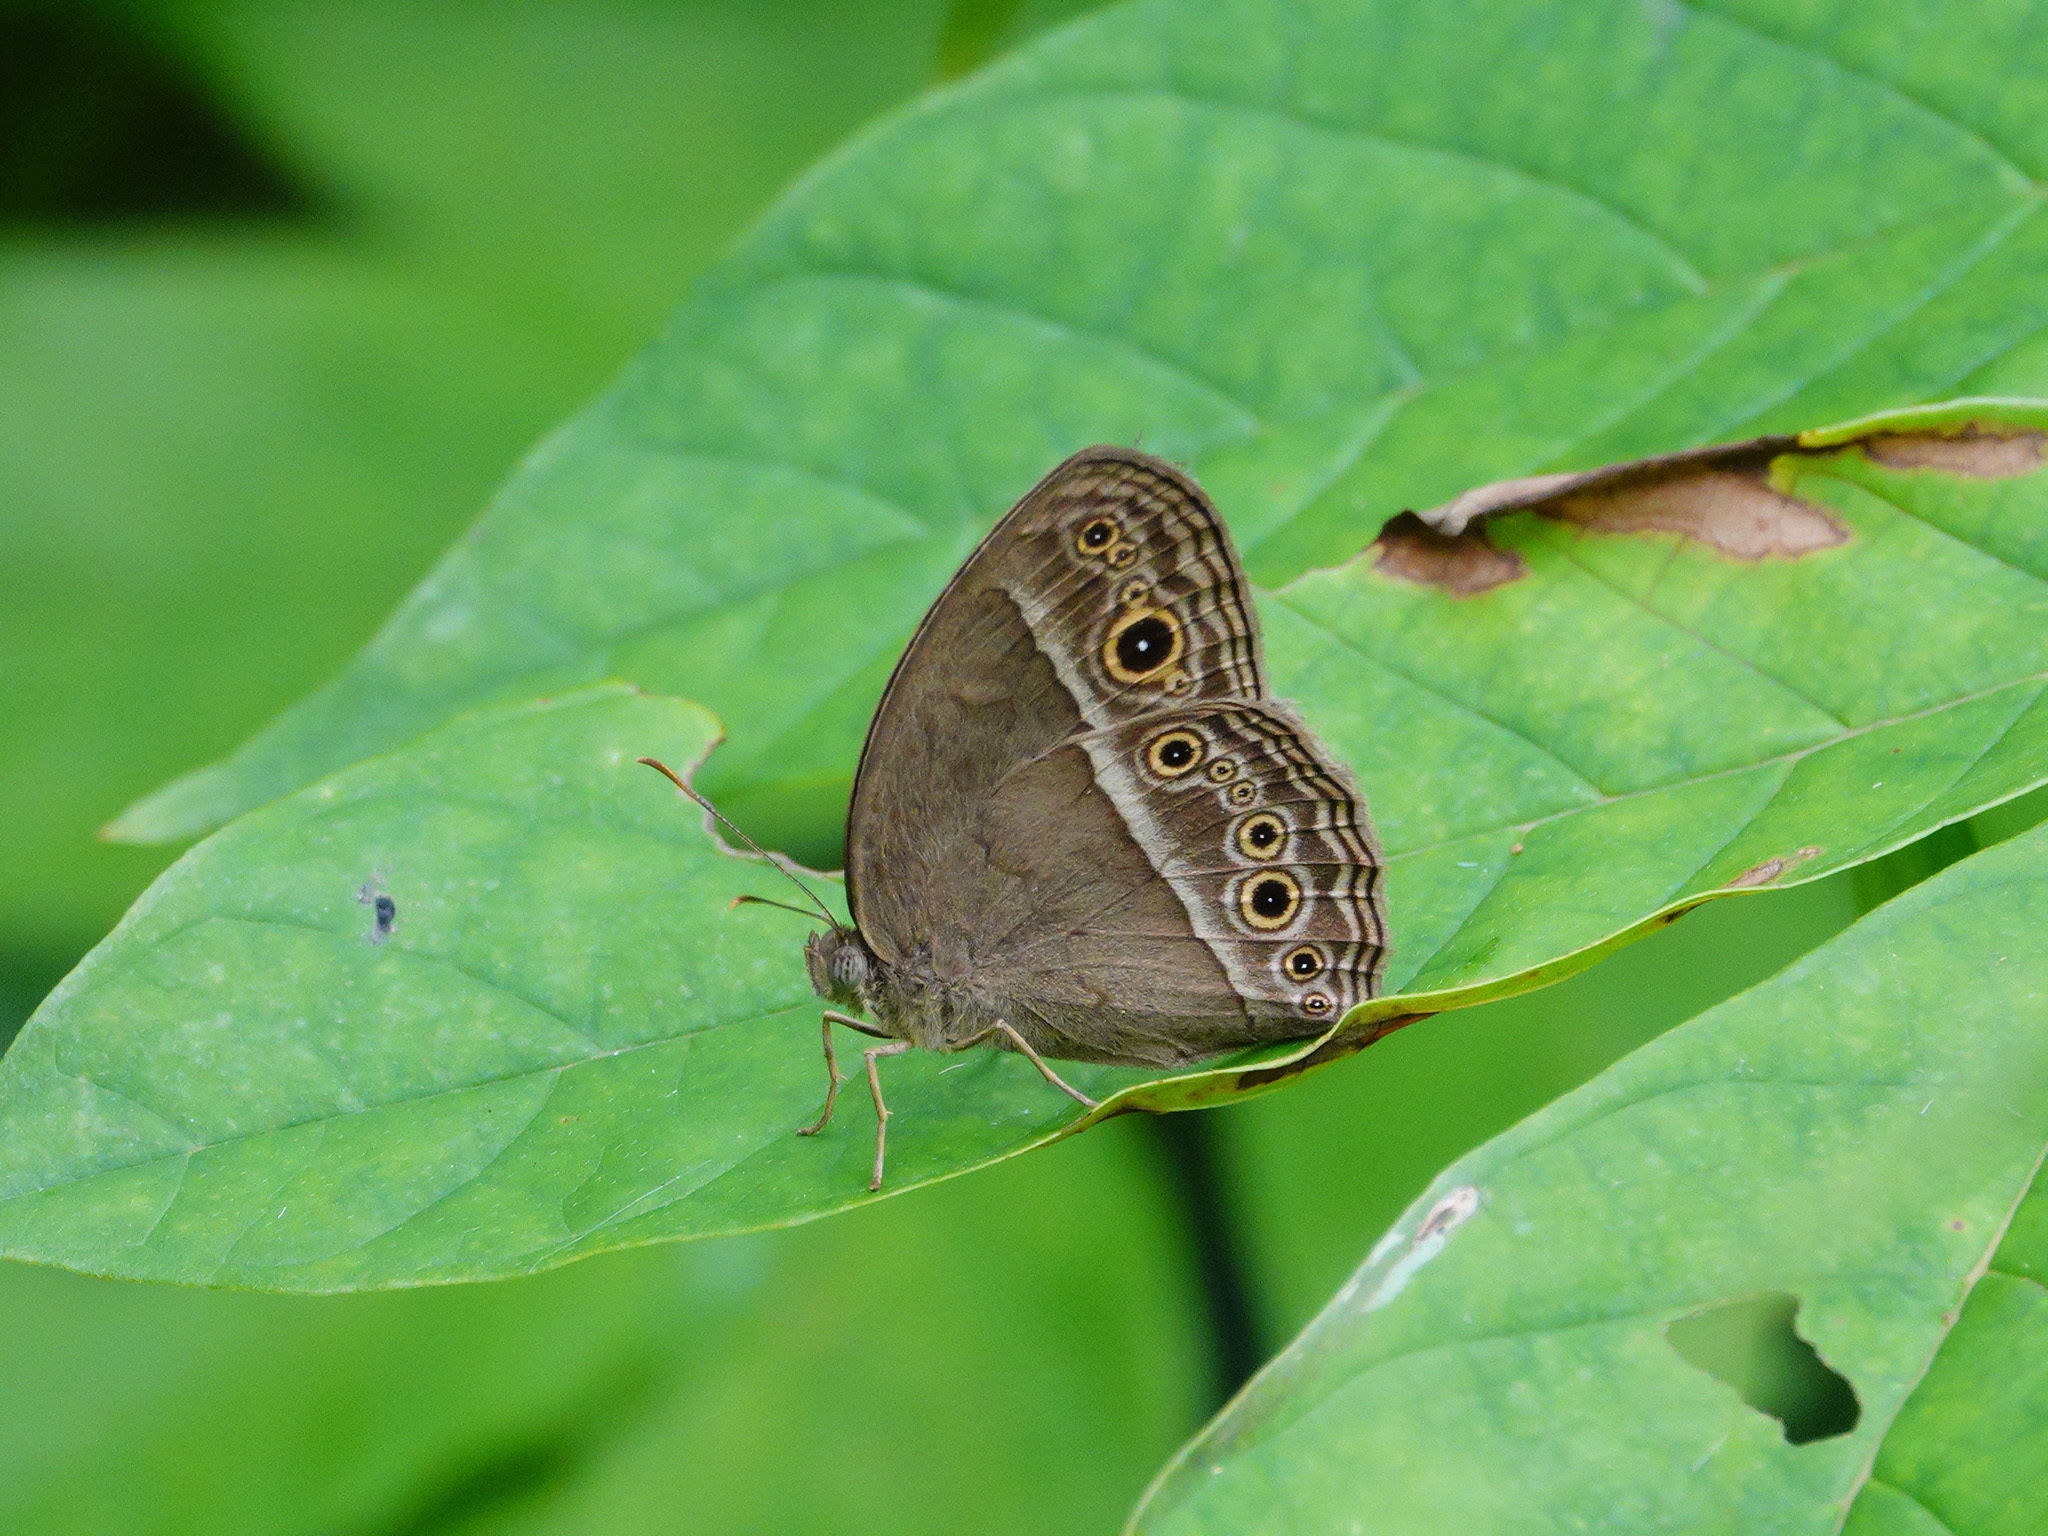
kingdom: Animalia
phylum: Arthropoda
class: Insecta
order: Lepidoptera
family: Nymphalidae
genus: Mycalesis
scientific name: Mycalesis perseoides
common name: Burmese bushbrown
